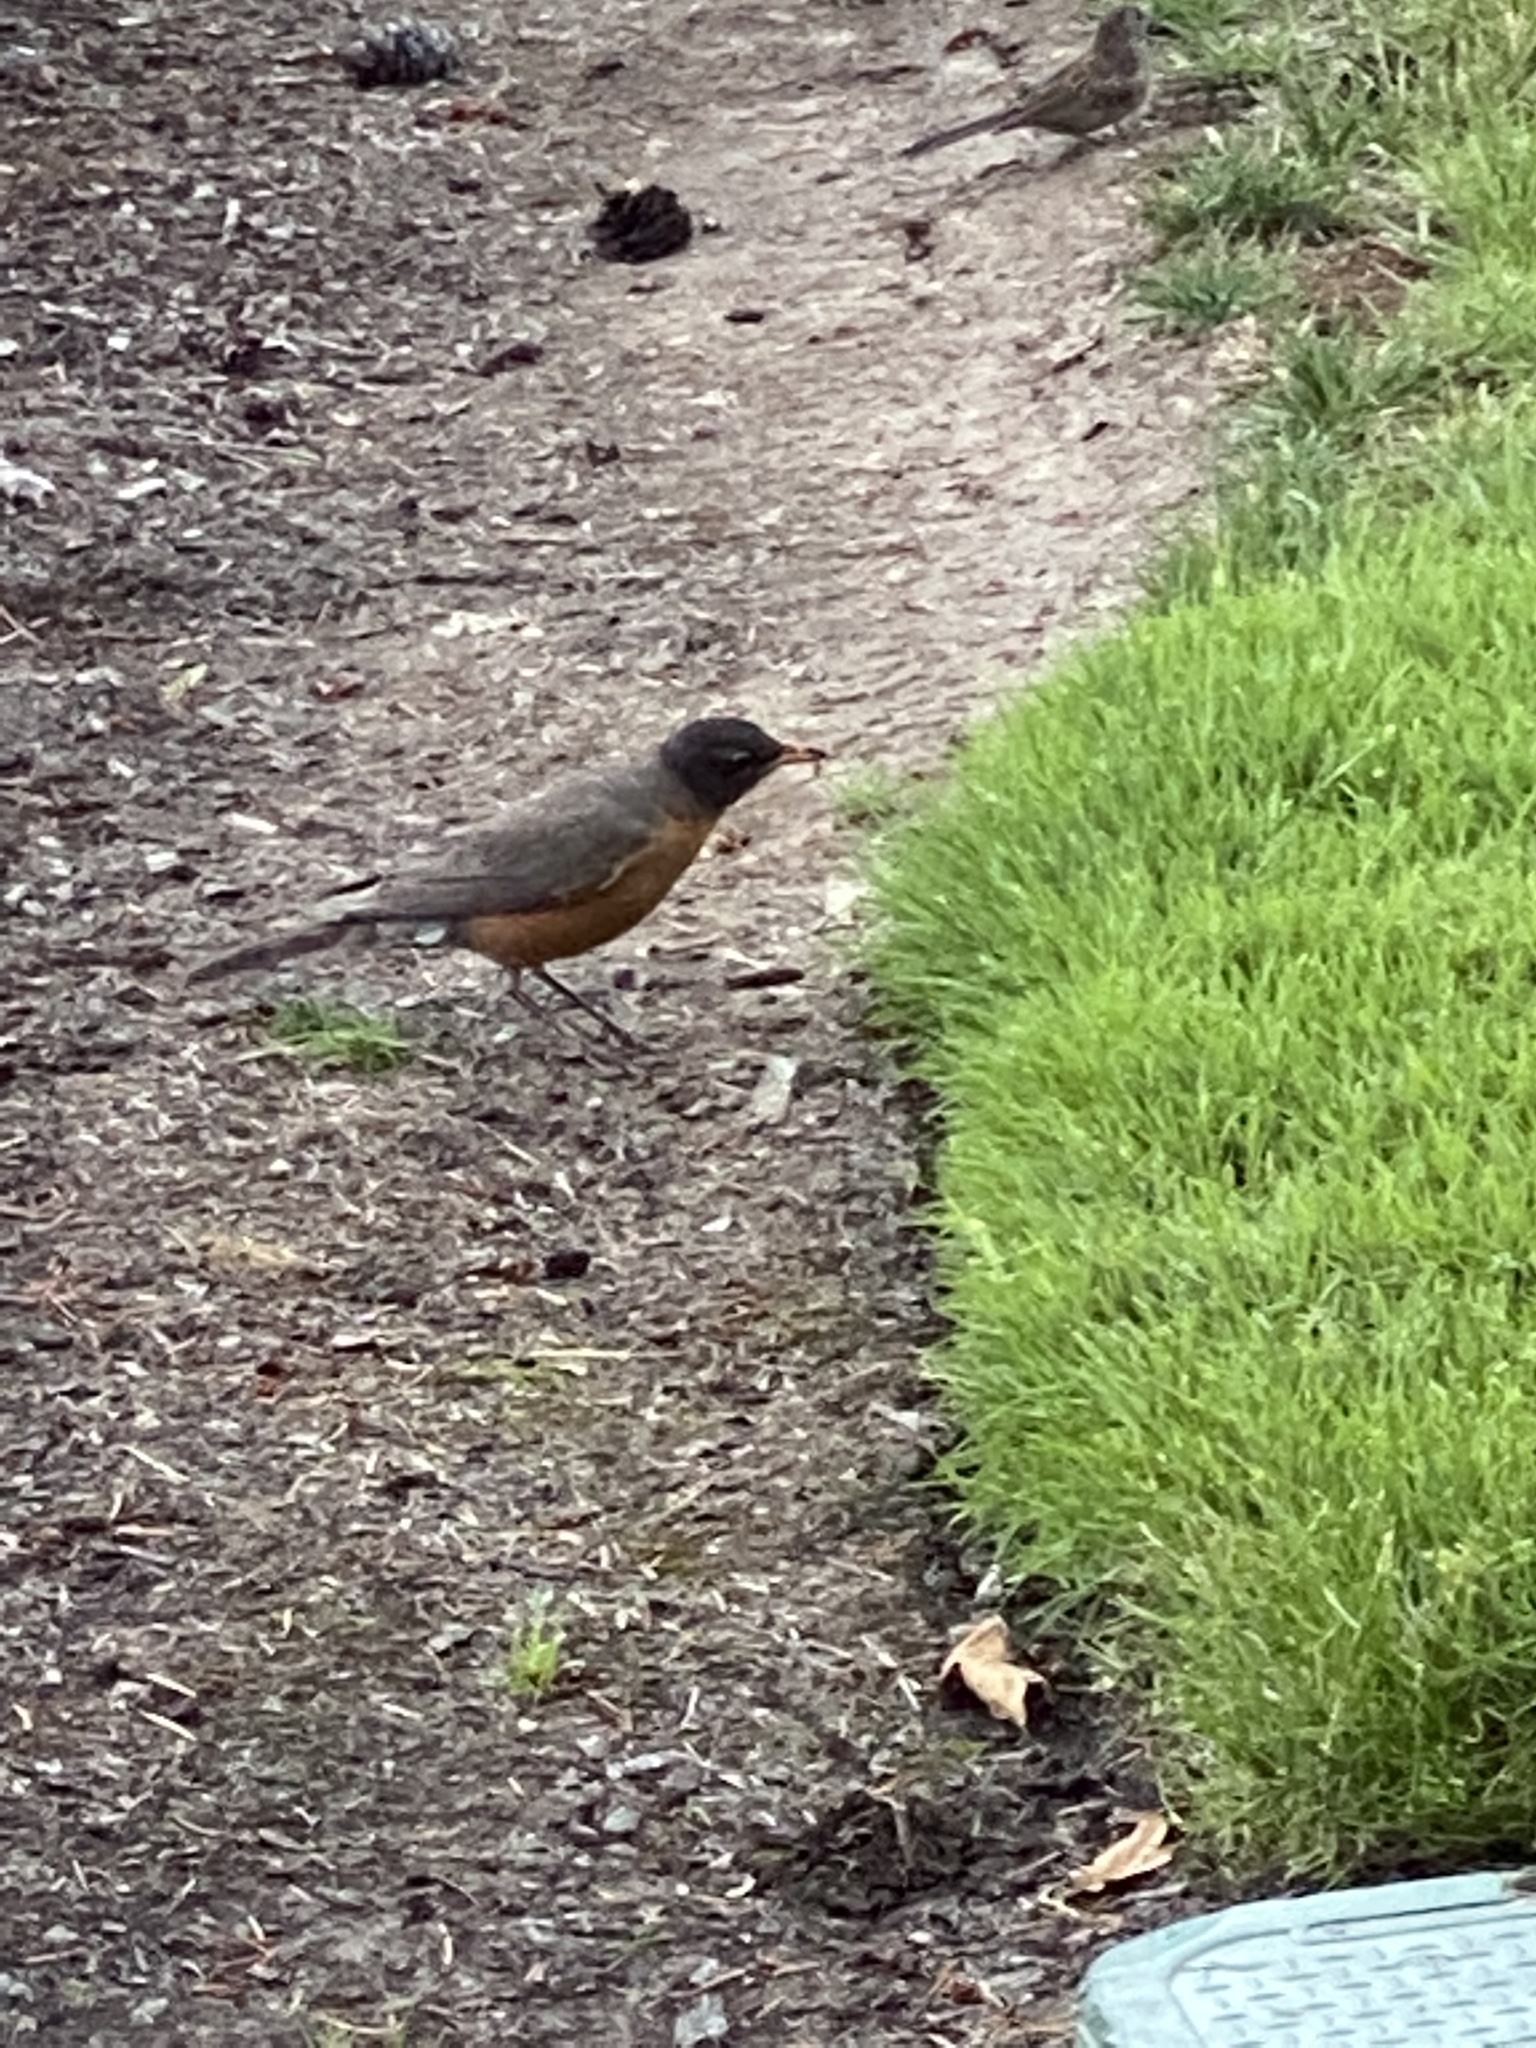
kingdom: Animalia
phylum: Chordata
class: Aves
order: Passeriformes
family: Turdidae
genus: Turdus
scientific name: Turdus migratorius
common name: American robin
